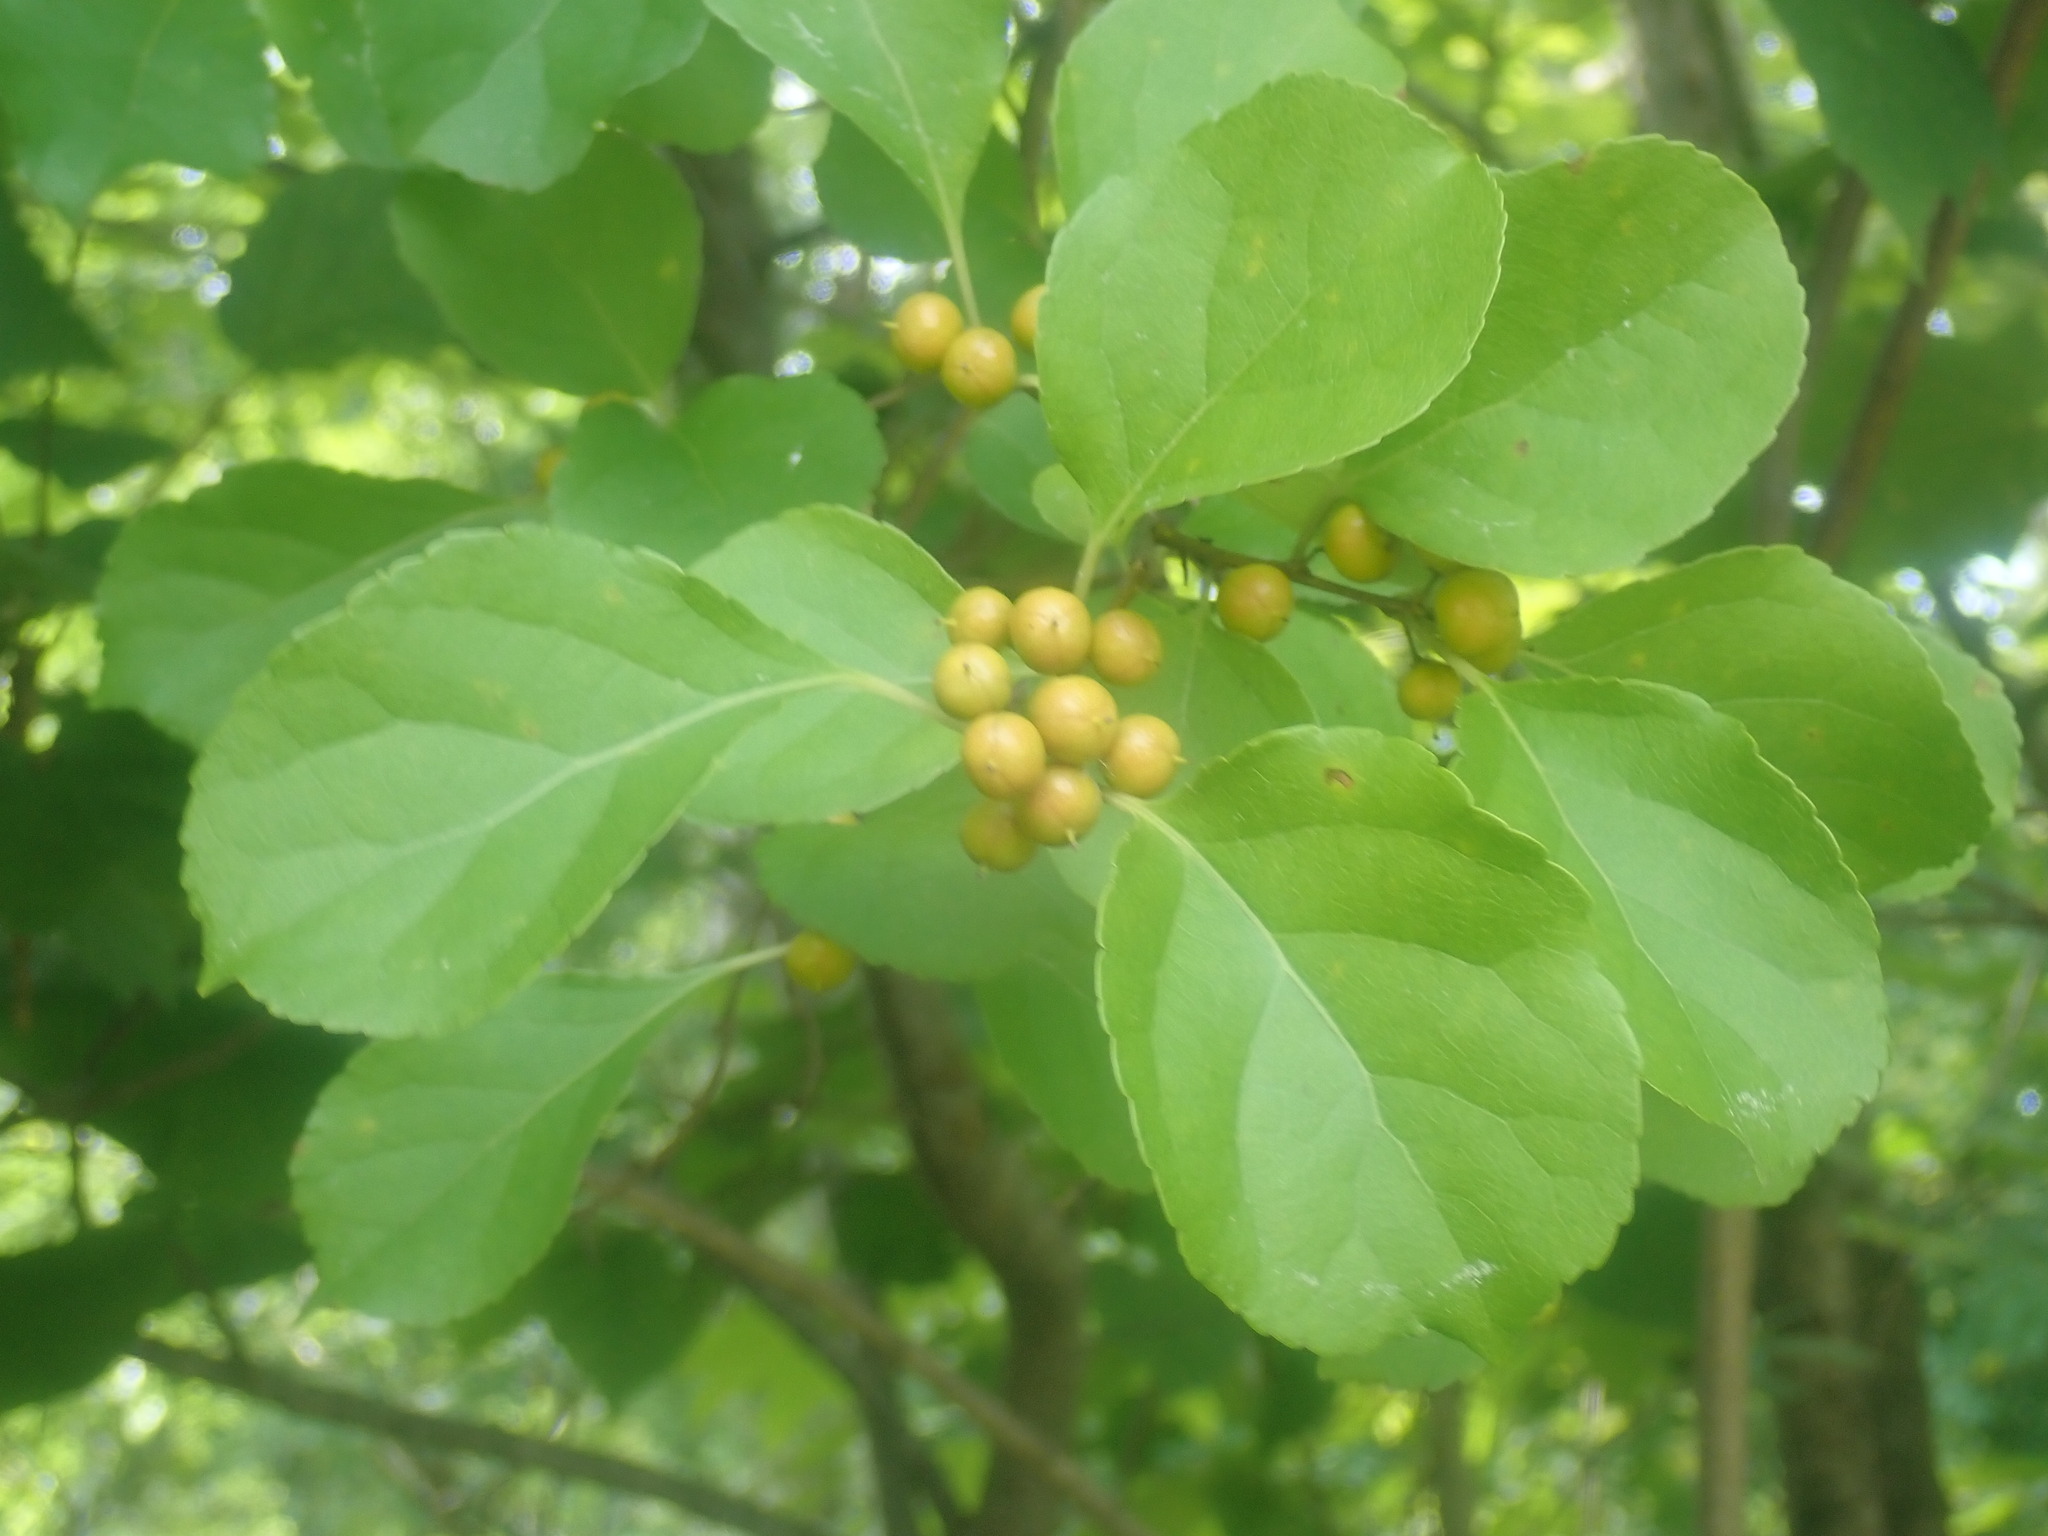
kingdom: Plantae
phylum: Tracheophyta
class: Magnoliopsida
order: Celastrales
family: Celastraceae
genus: Celastrus
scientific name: Celastrus orbiculatus
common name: Oriental bittersweet
